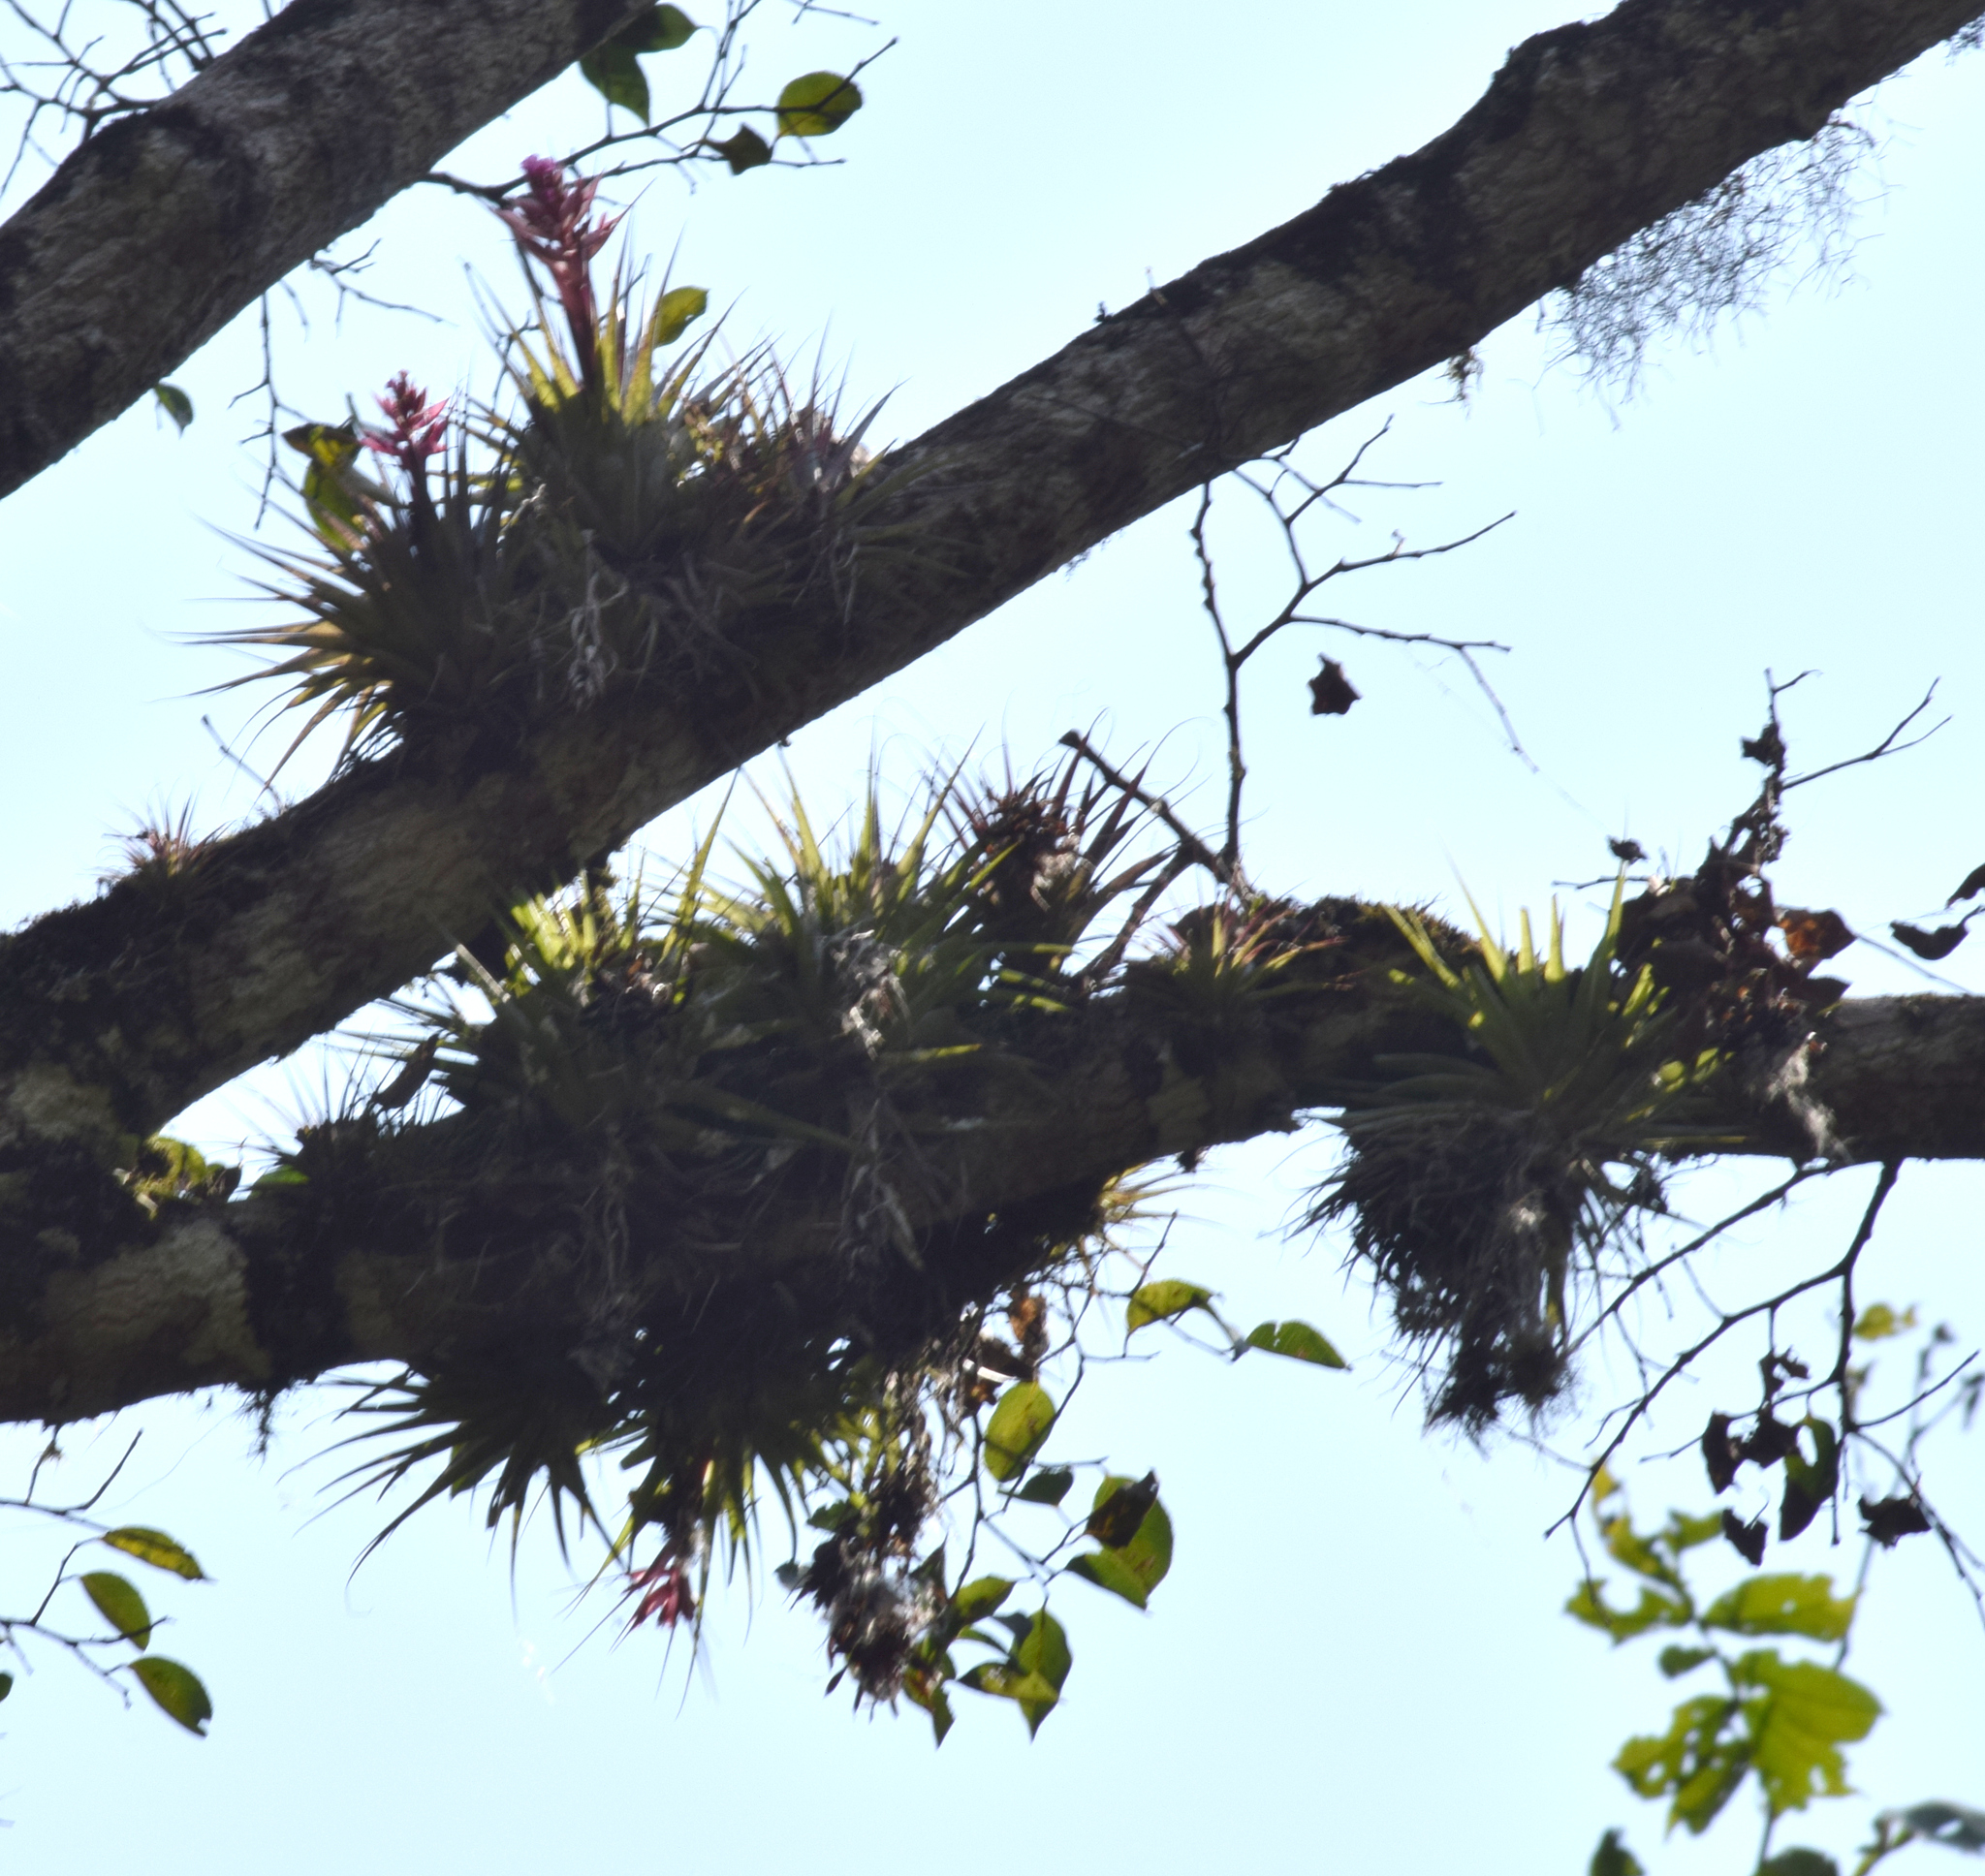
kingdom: Plantae
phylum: Tracheophyta
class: Liliopsida
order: Poales
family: Bromeliaceae
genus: Tillandsia
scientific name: Tillandsia geminiflora
